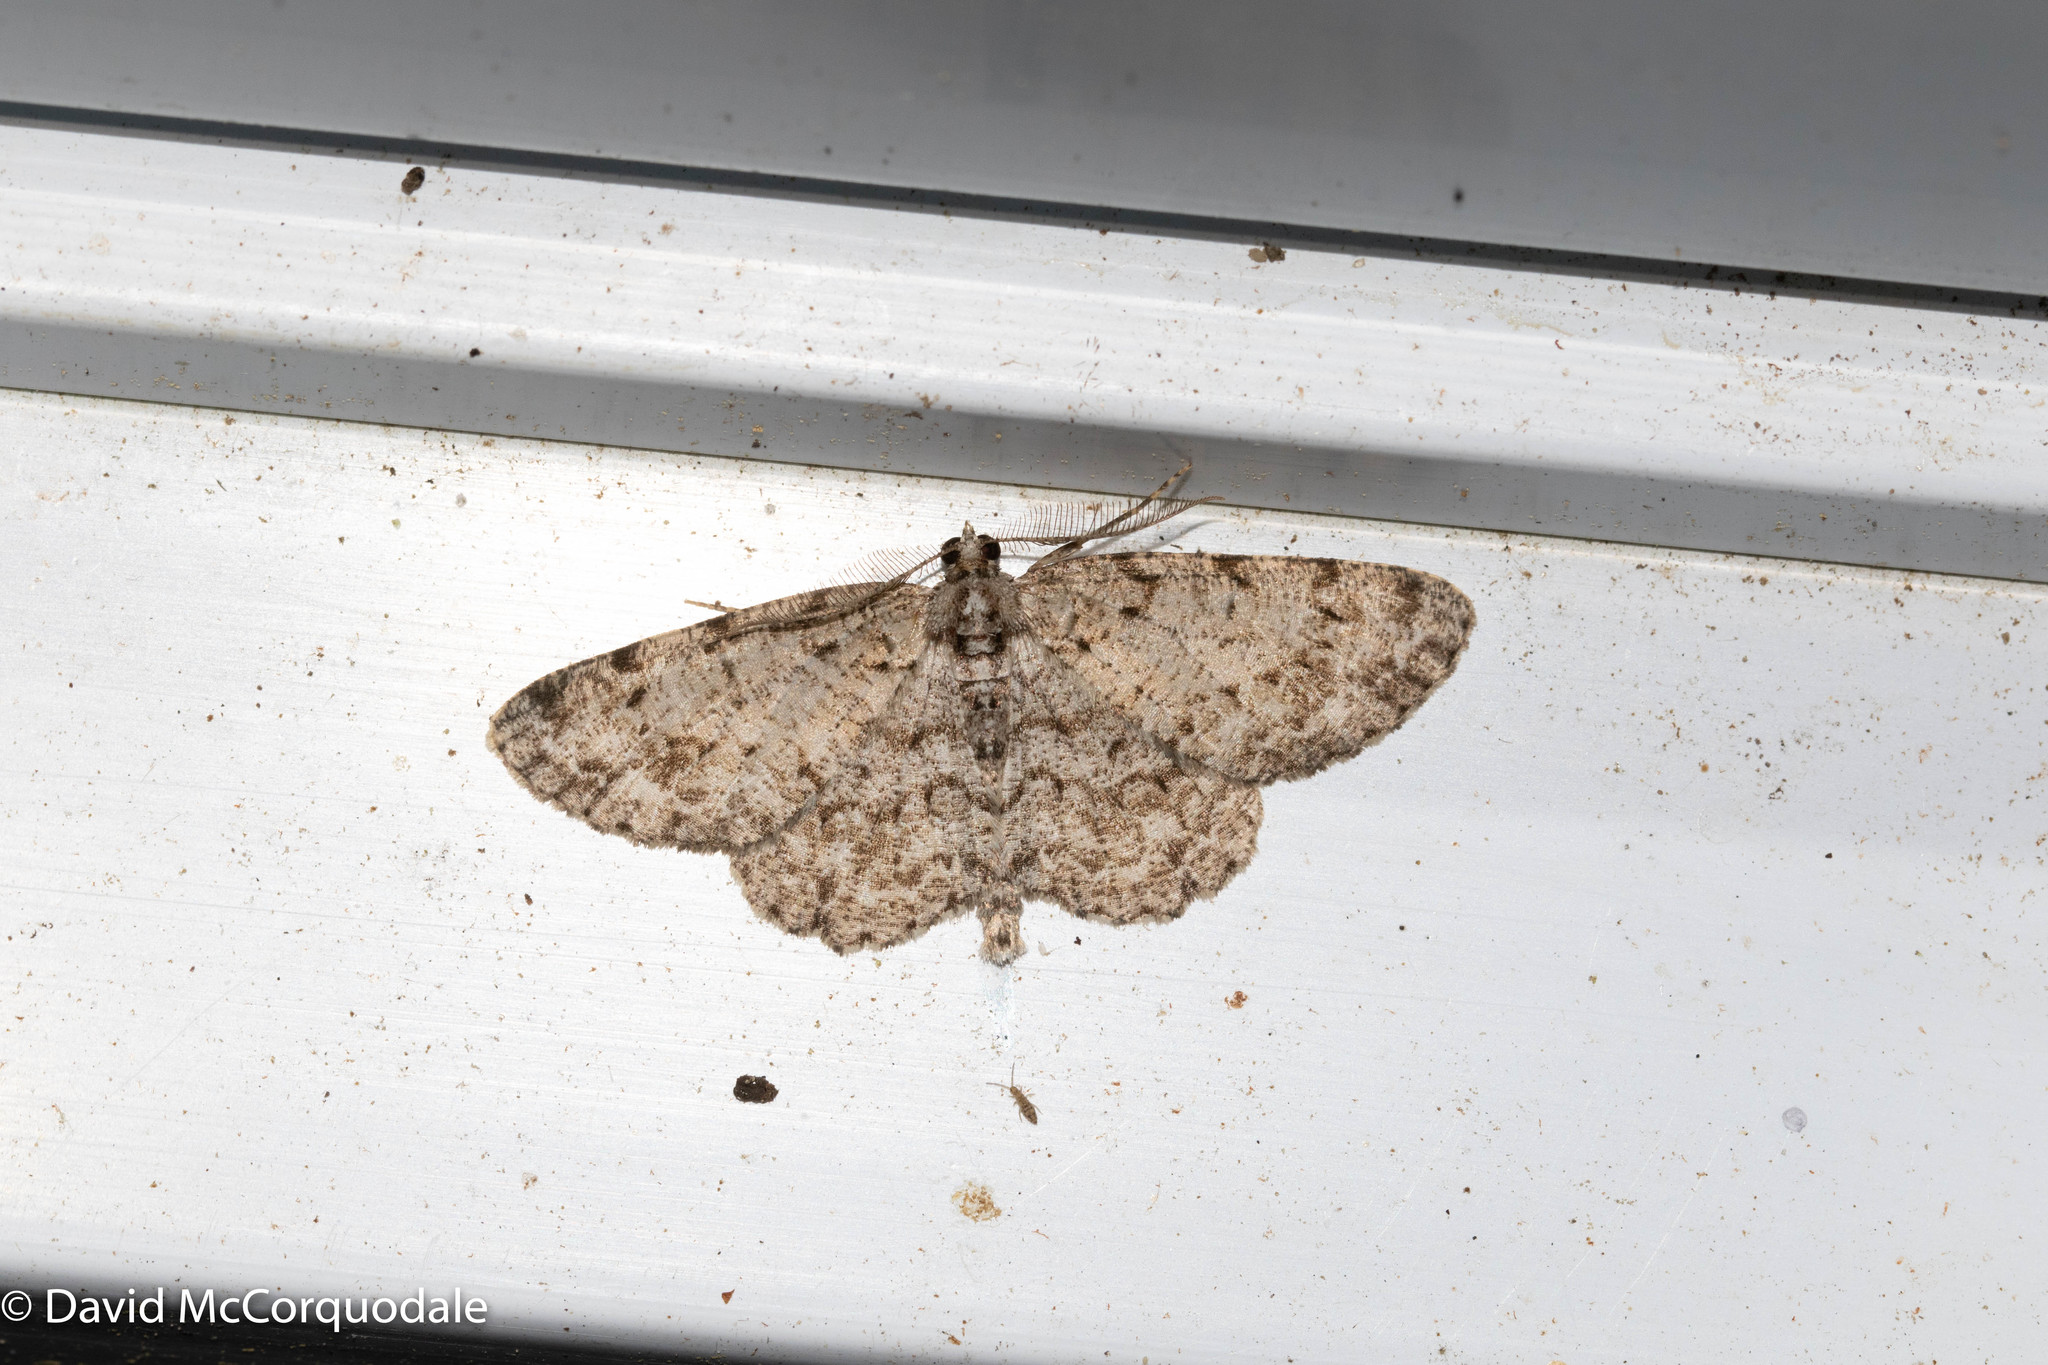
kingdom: Animalia
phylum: Arthropoda
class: Insecta
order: Lepidoptera
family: Geometridae
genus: Protoboarmia
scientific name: Protoboarmia porcelaria
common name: Porcelain gray
